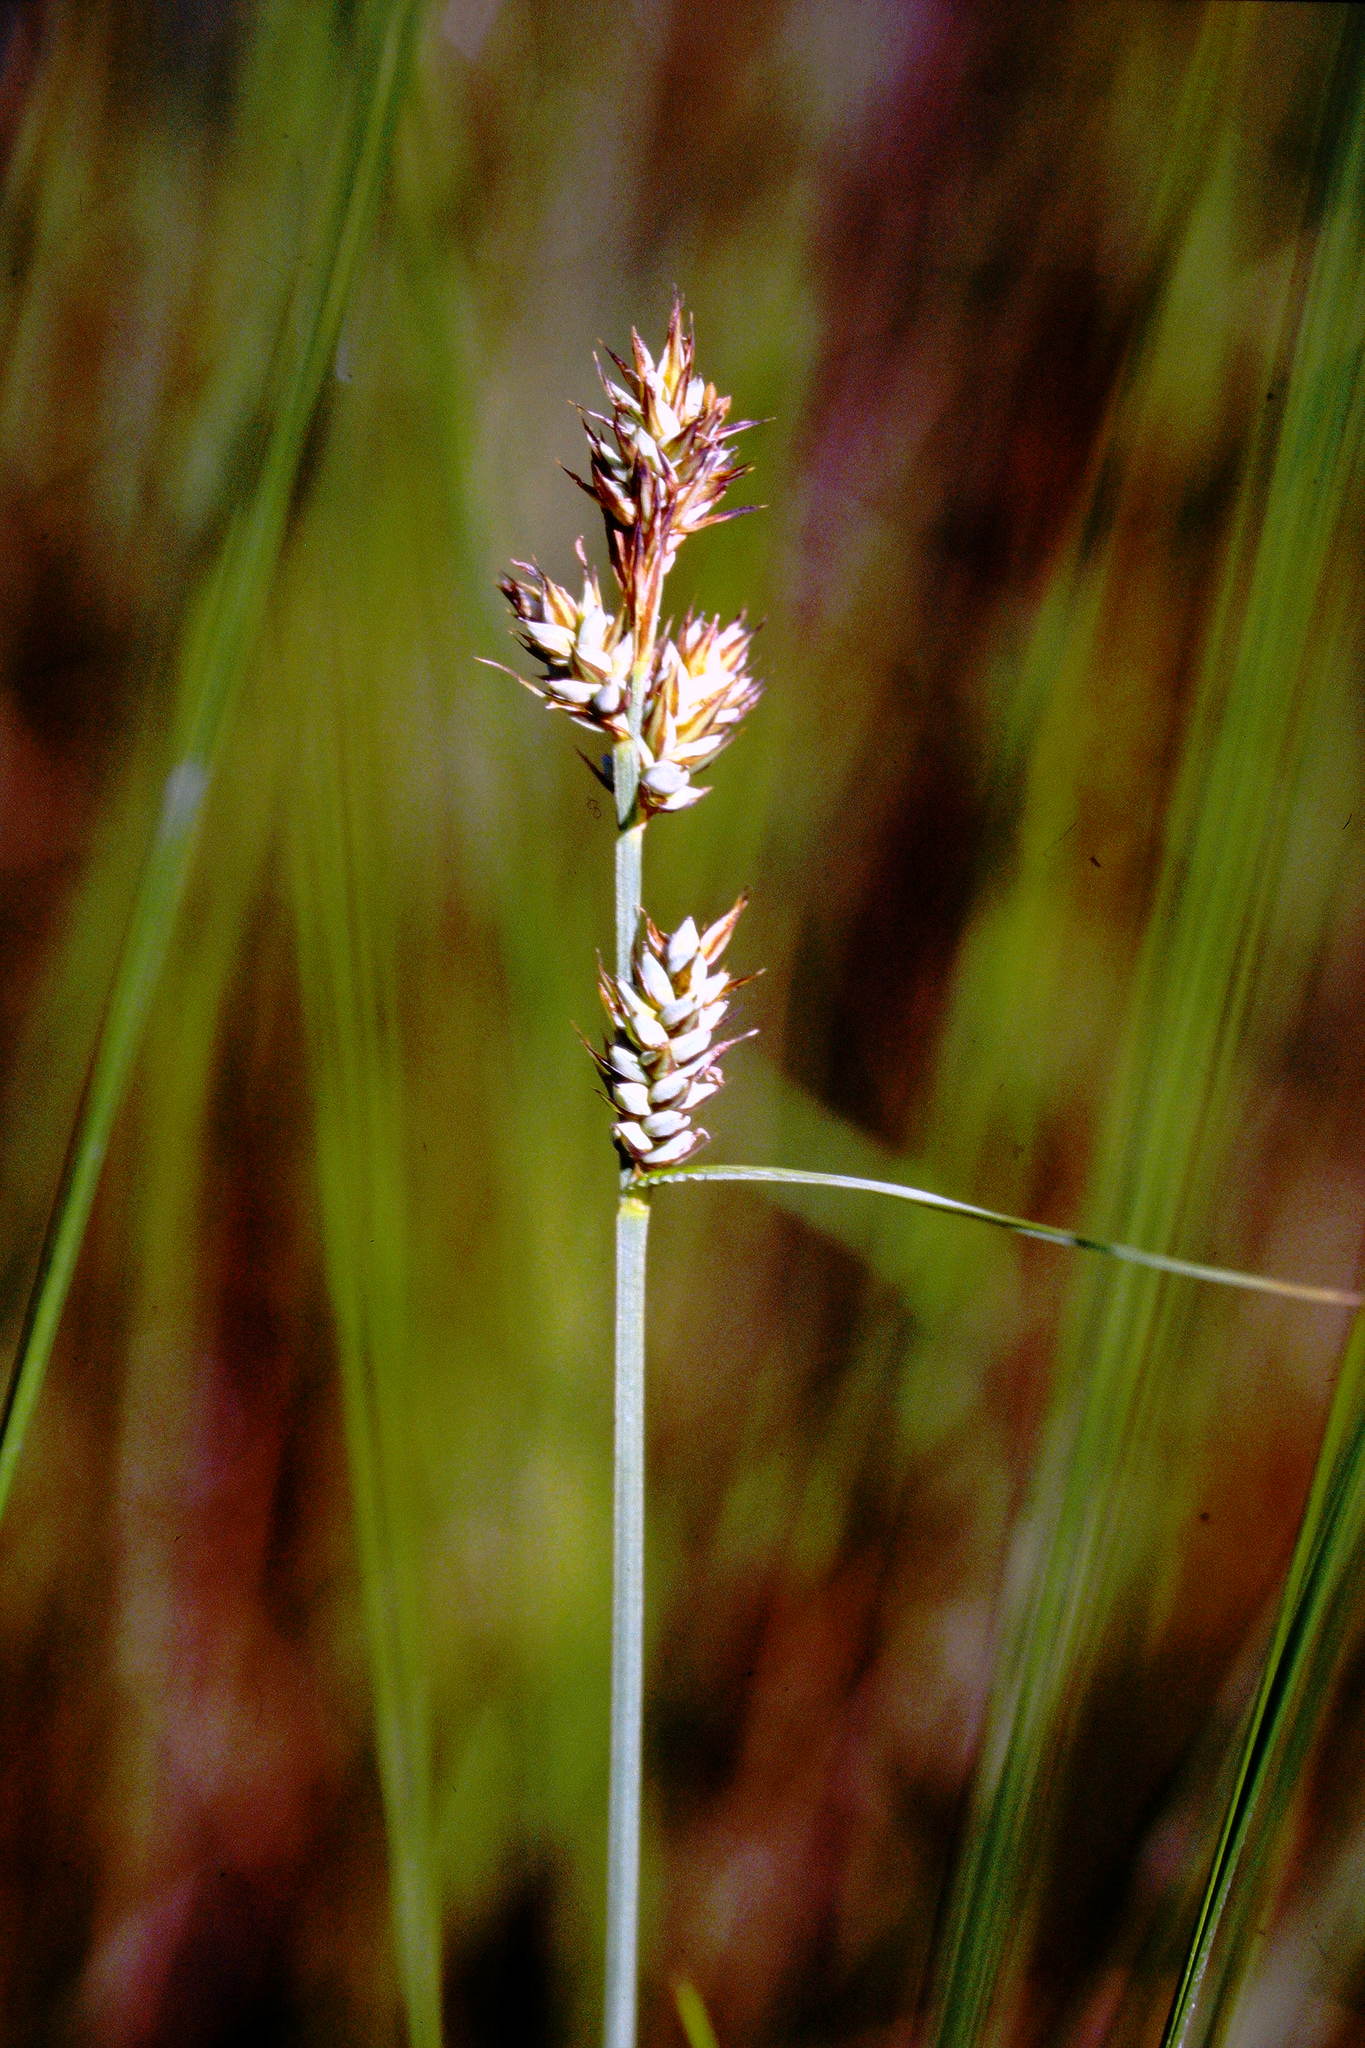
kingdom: Plantae
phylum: Tracheophyta
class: Liliopsida
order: Poales
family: Cyperaceae
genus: Carex
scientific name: Carex buxbaumii
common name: Club sedge
